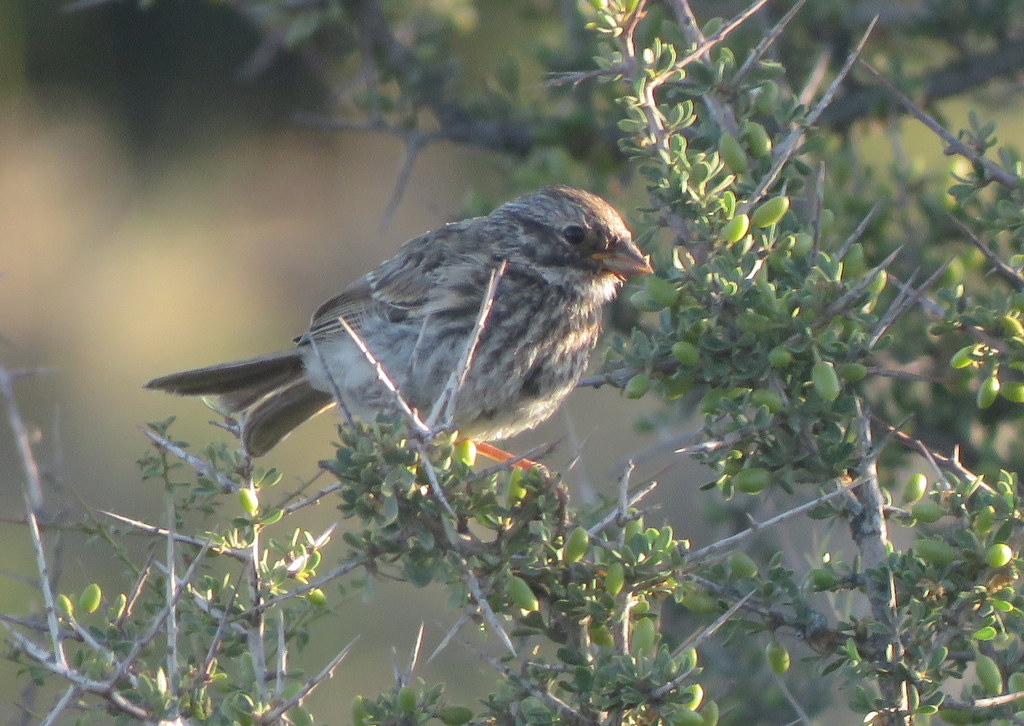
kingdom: Animalia
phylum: Chordata
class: Aves
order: Passeriformes
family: Thraupidae
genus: Rhopospina
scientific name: Rhopospina fruticeti
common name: Mourning sierra finch
